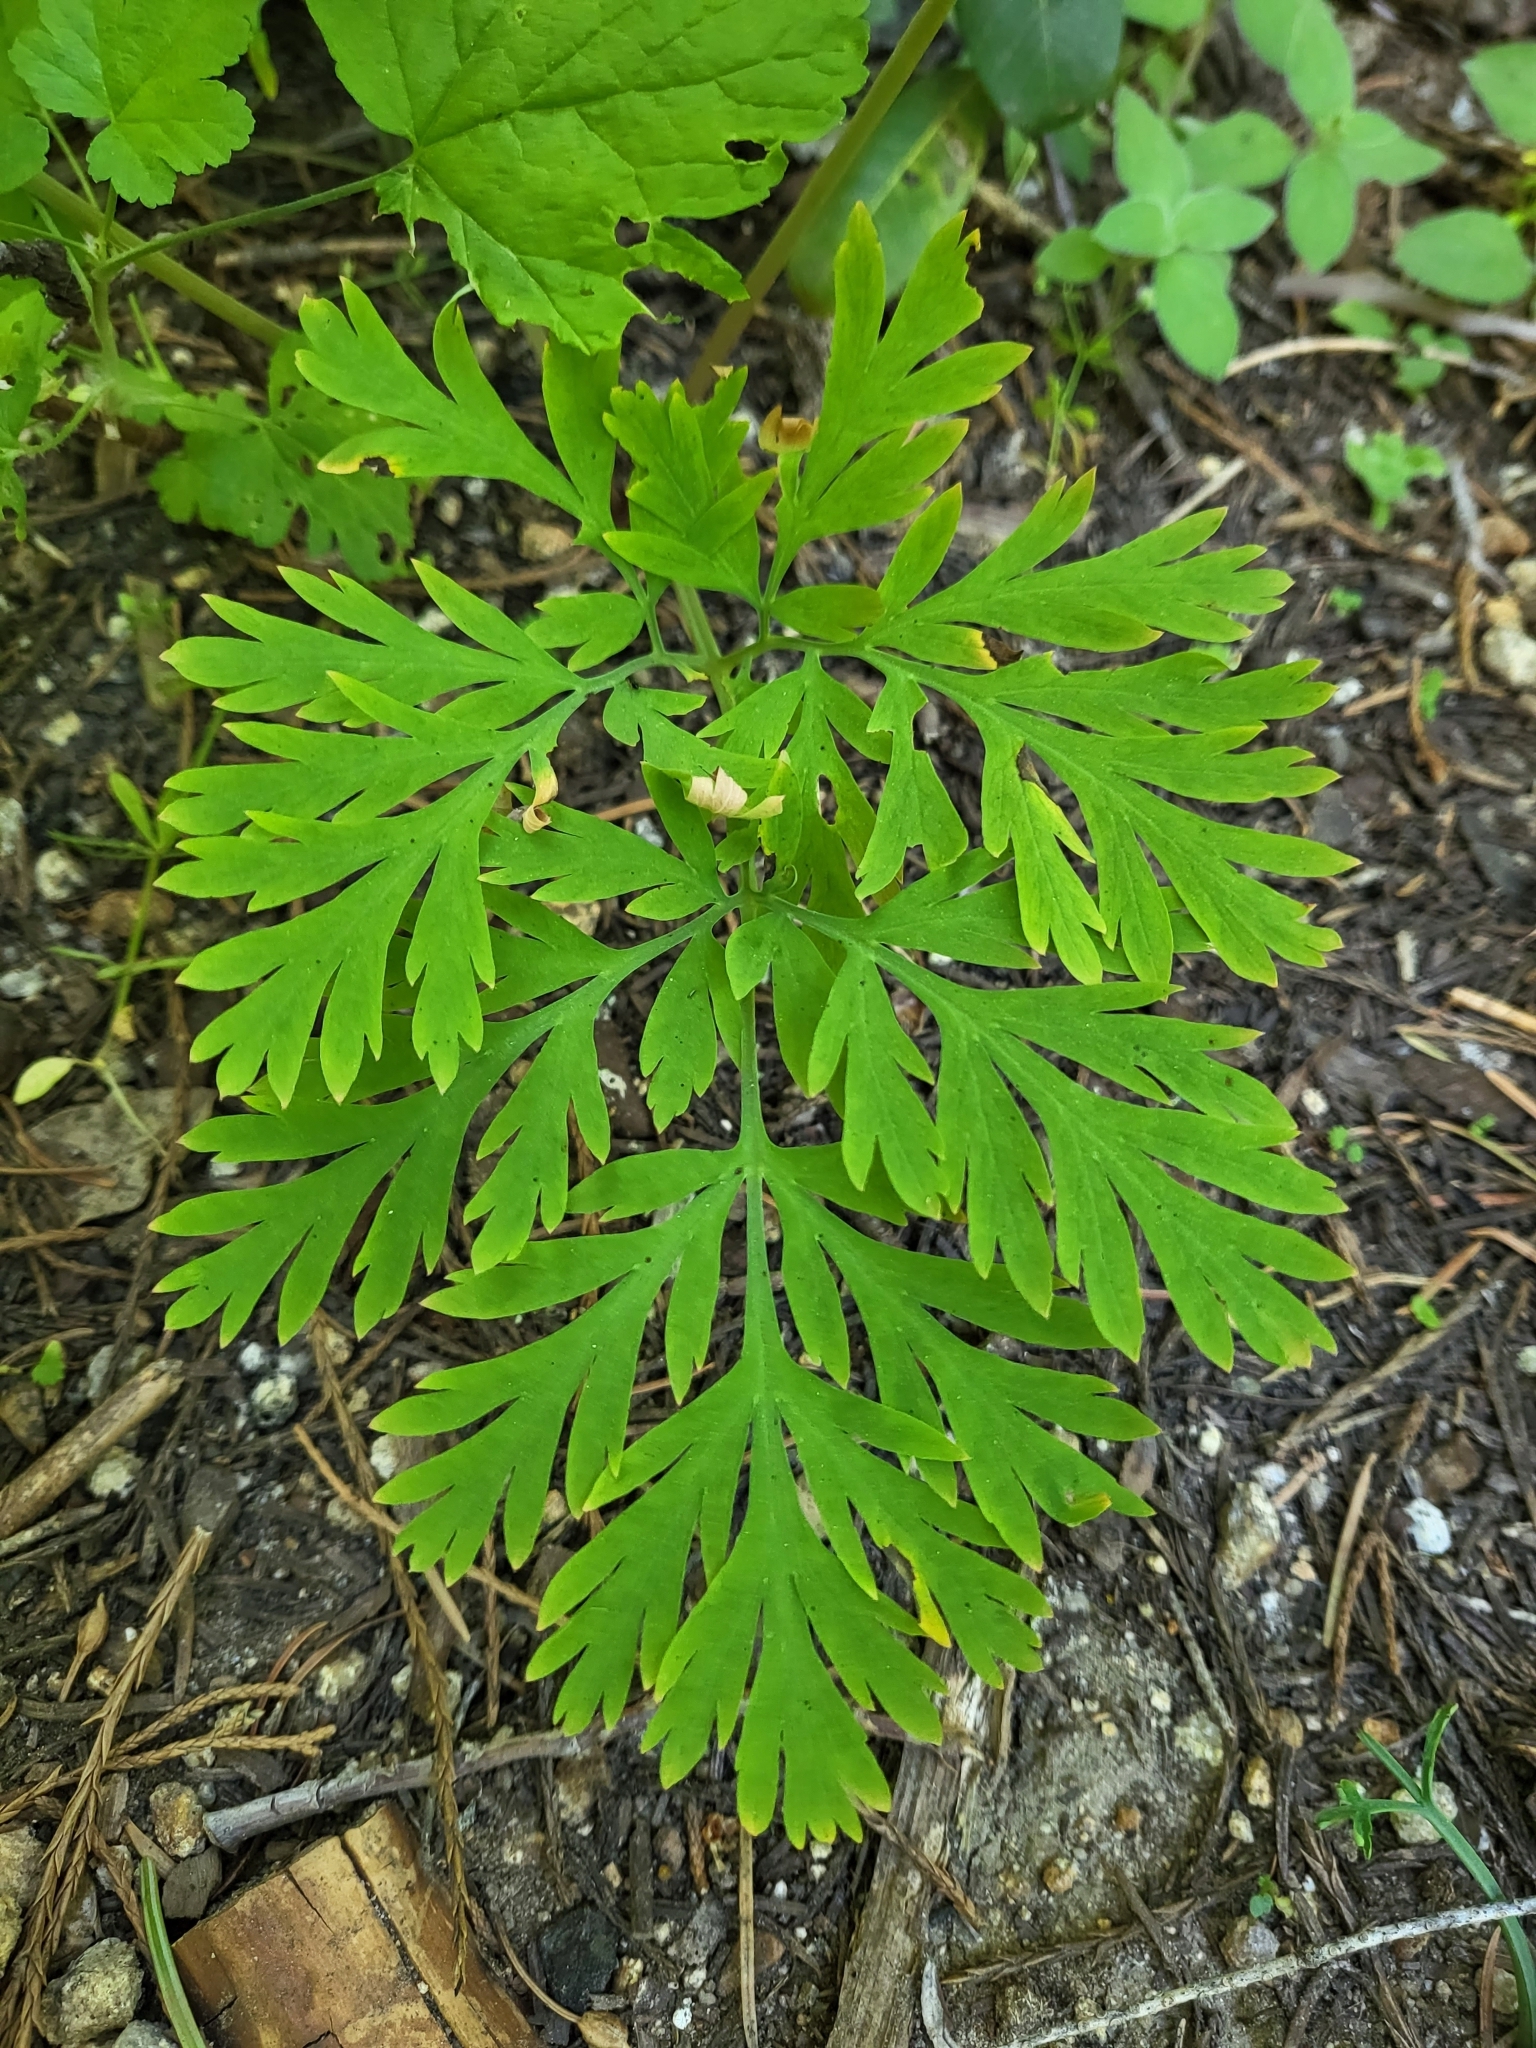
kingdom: Plantae
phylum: Tracheophyta
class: Magnoliopsida
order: Ranunculales
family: Papaveraceae
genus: Dicentra
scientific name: Dicentra formosa
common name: Bleeding-heart
